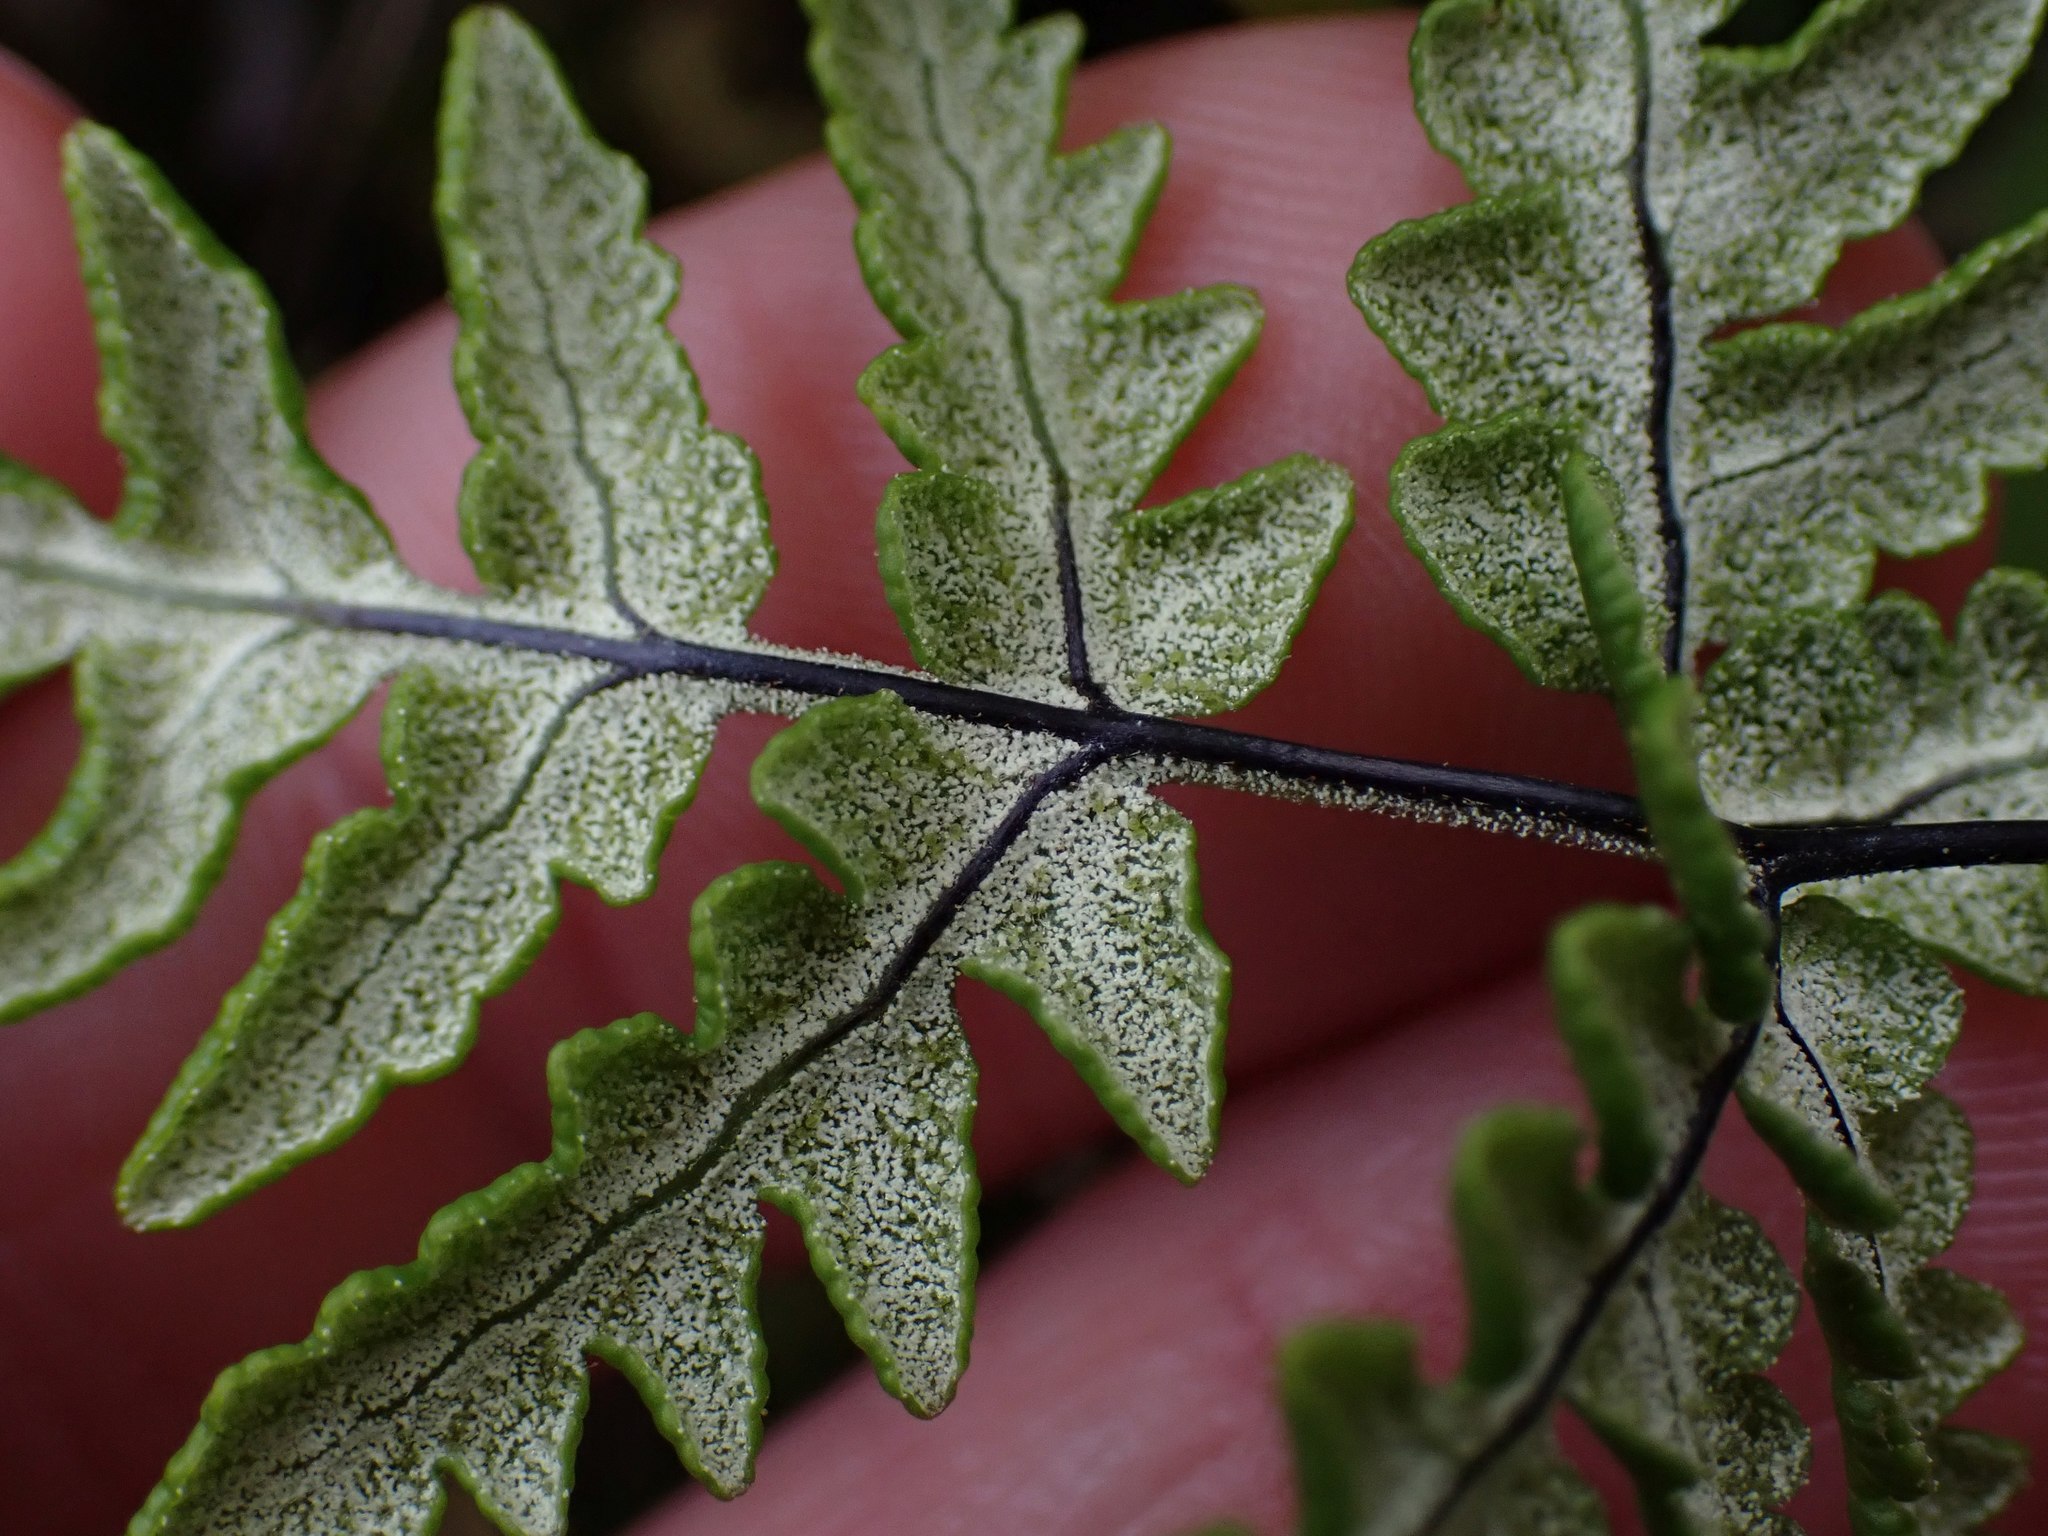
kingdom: Plantae
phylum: Tracheophyta
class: Polypodiopsida
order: Polypodiales
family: Pteridaceae
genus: Pentagramma
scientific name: Pentagramma triangularis
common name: Gold fern
